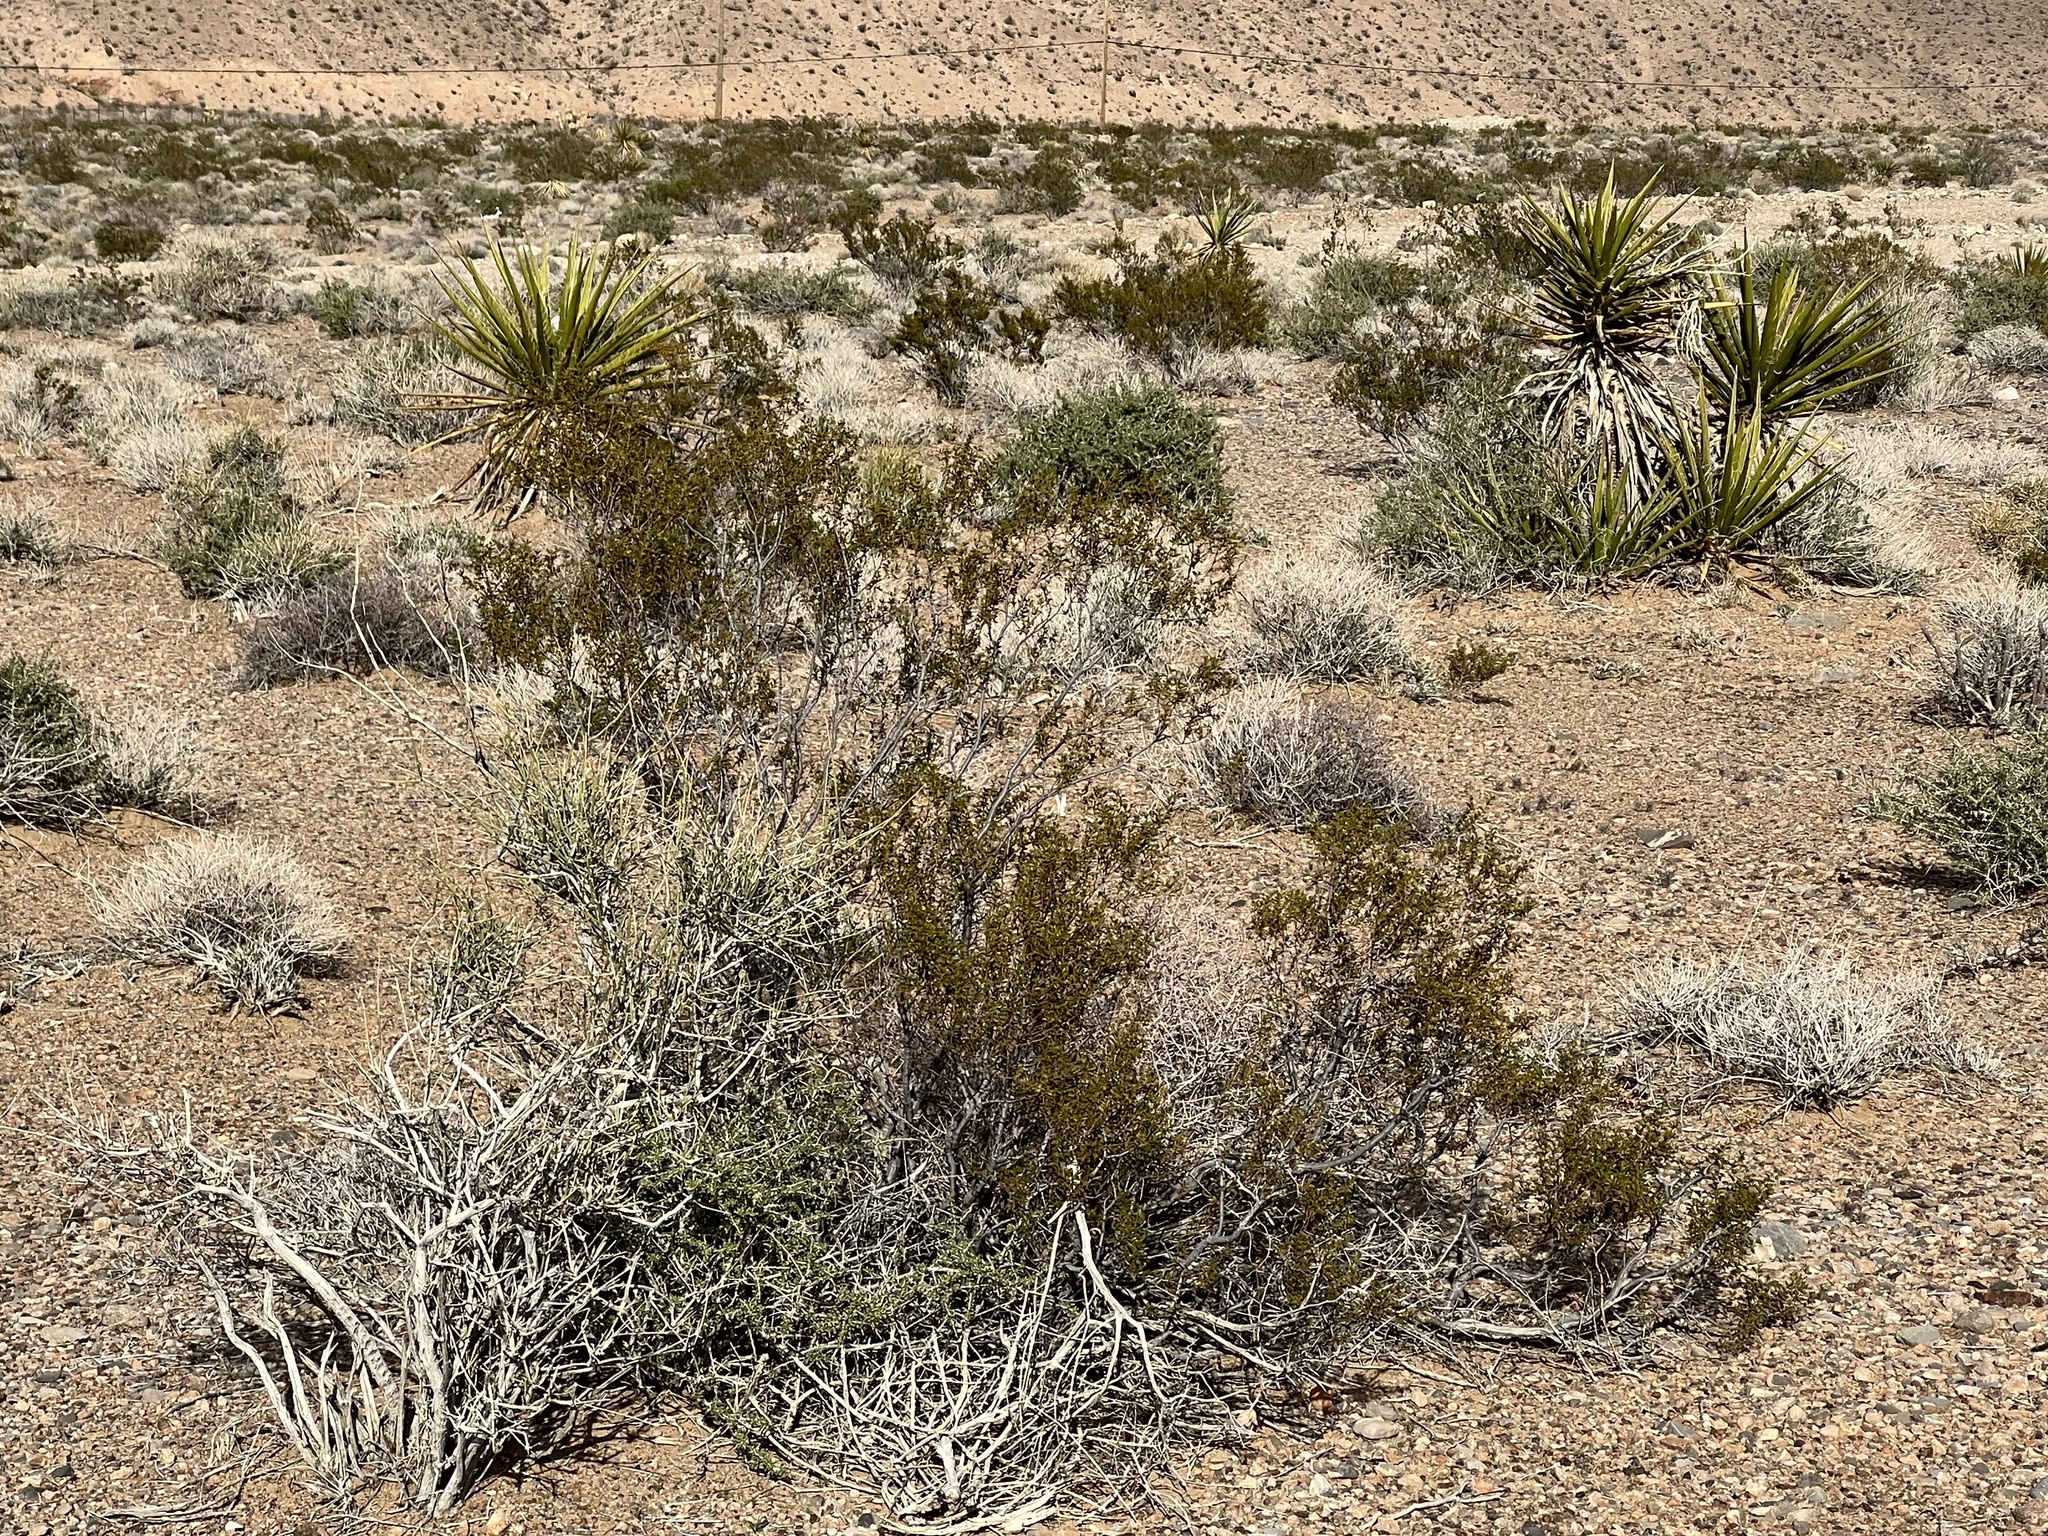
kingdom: Plantae
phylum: Tracheophyta
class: Magnoliopsida
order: Zygophyllales
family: Zygophyllaceae
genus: Larrea
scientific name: Larrea tridentata
